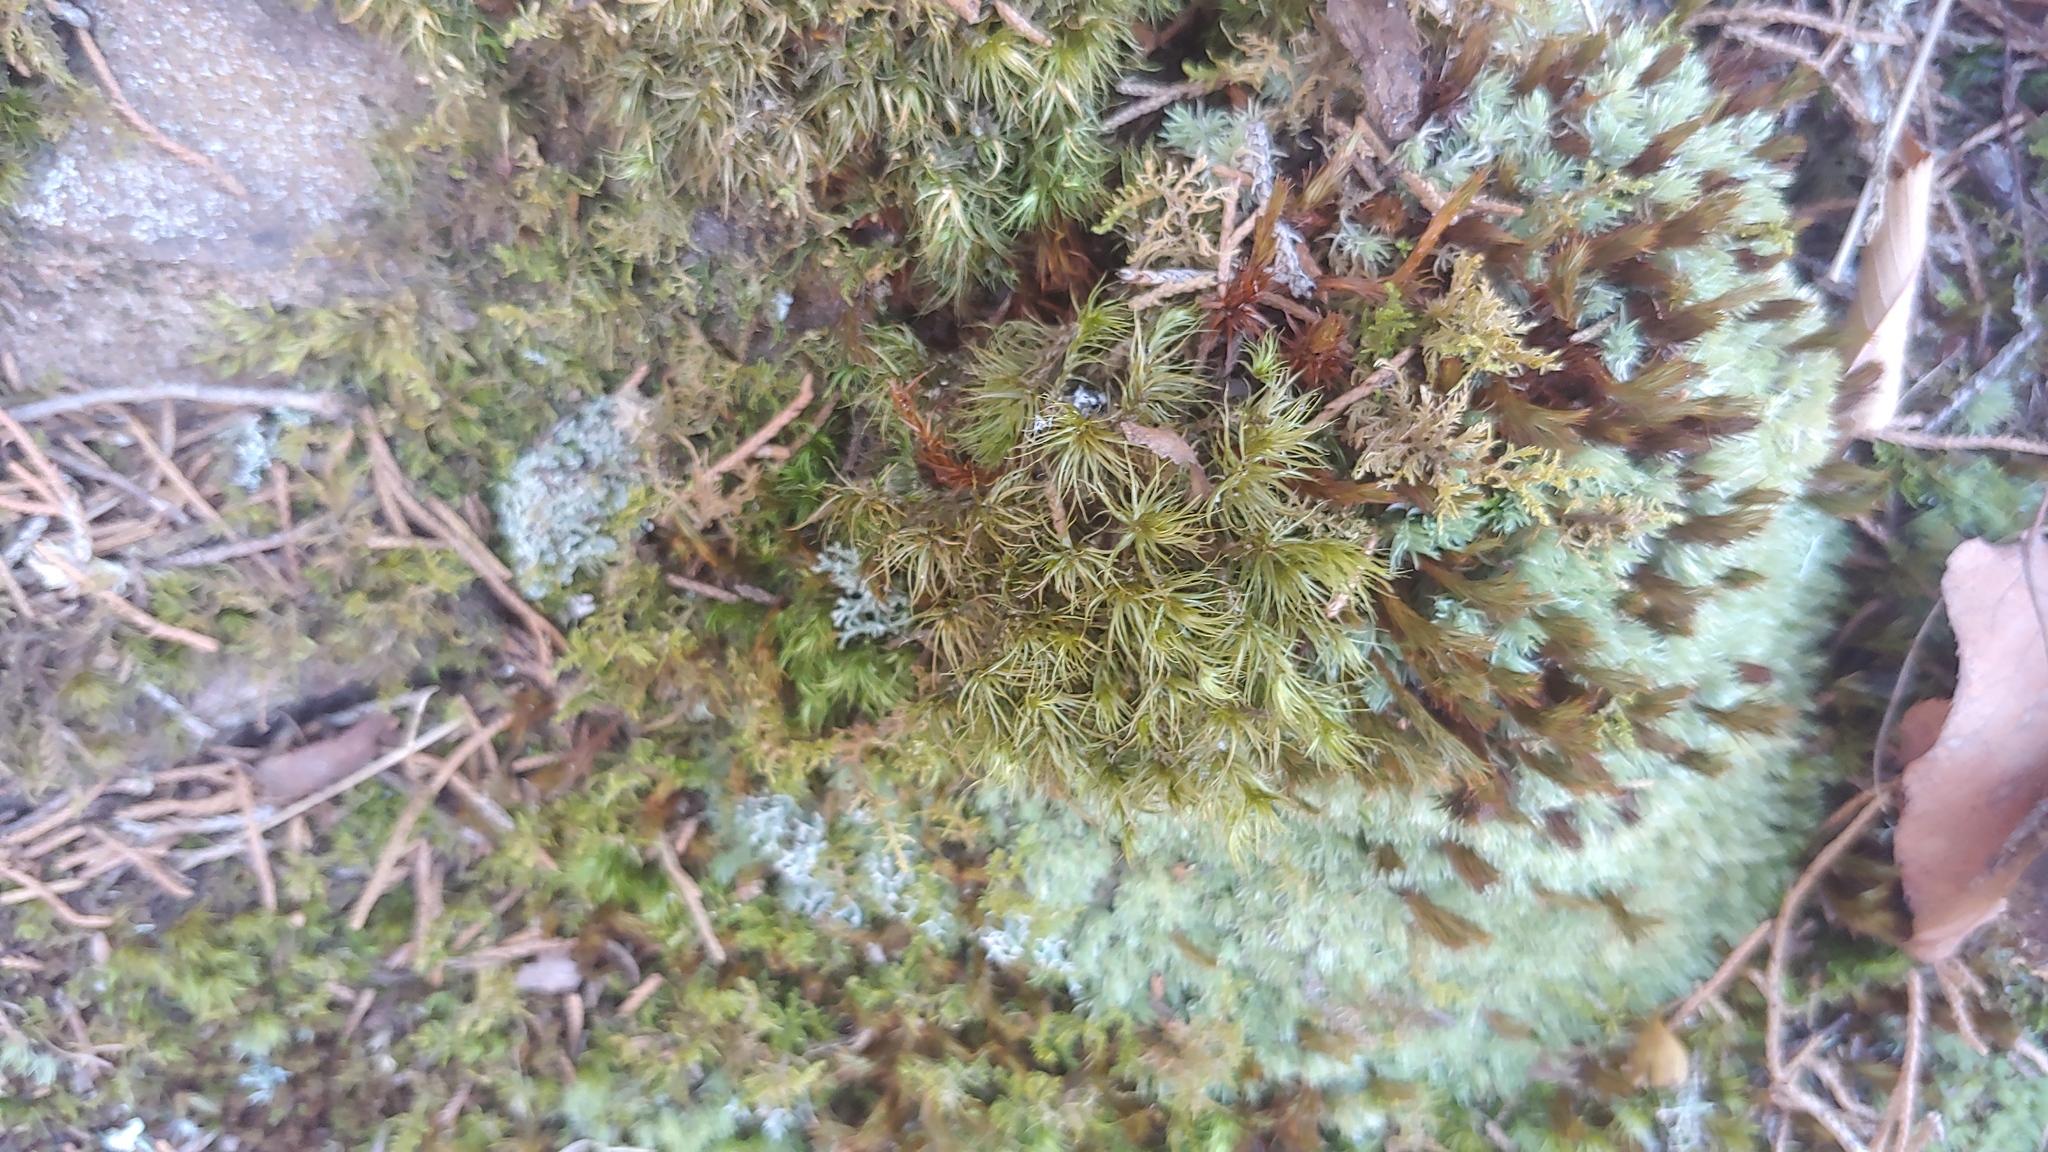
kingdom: Plantae
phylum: Bryophyta
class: Bryopsida
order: Dicranales
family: Dicranaceae
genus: Dicranum
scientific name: Dicranum scoparium
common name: Broom fork-moss
